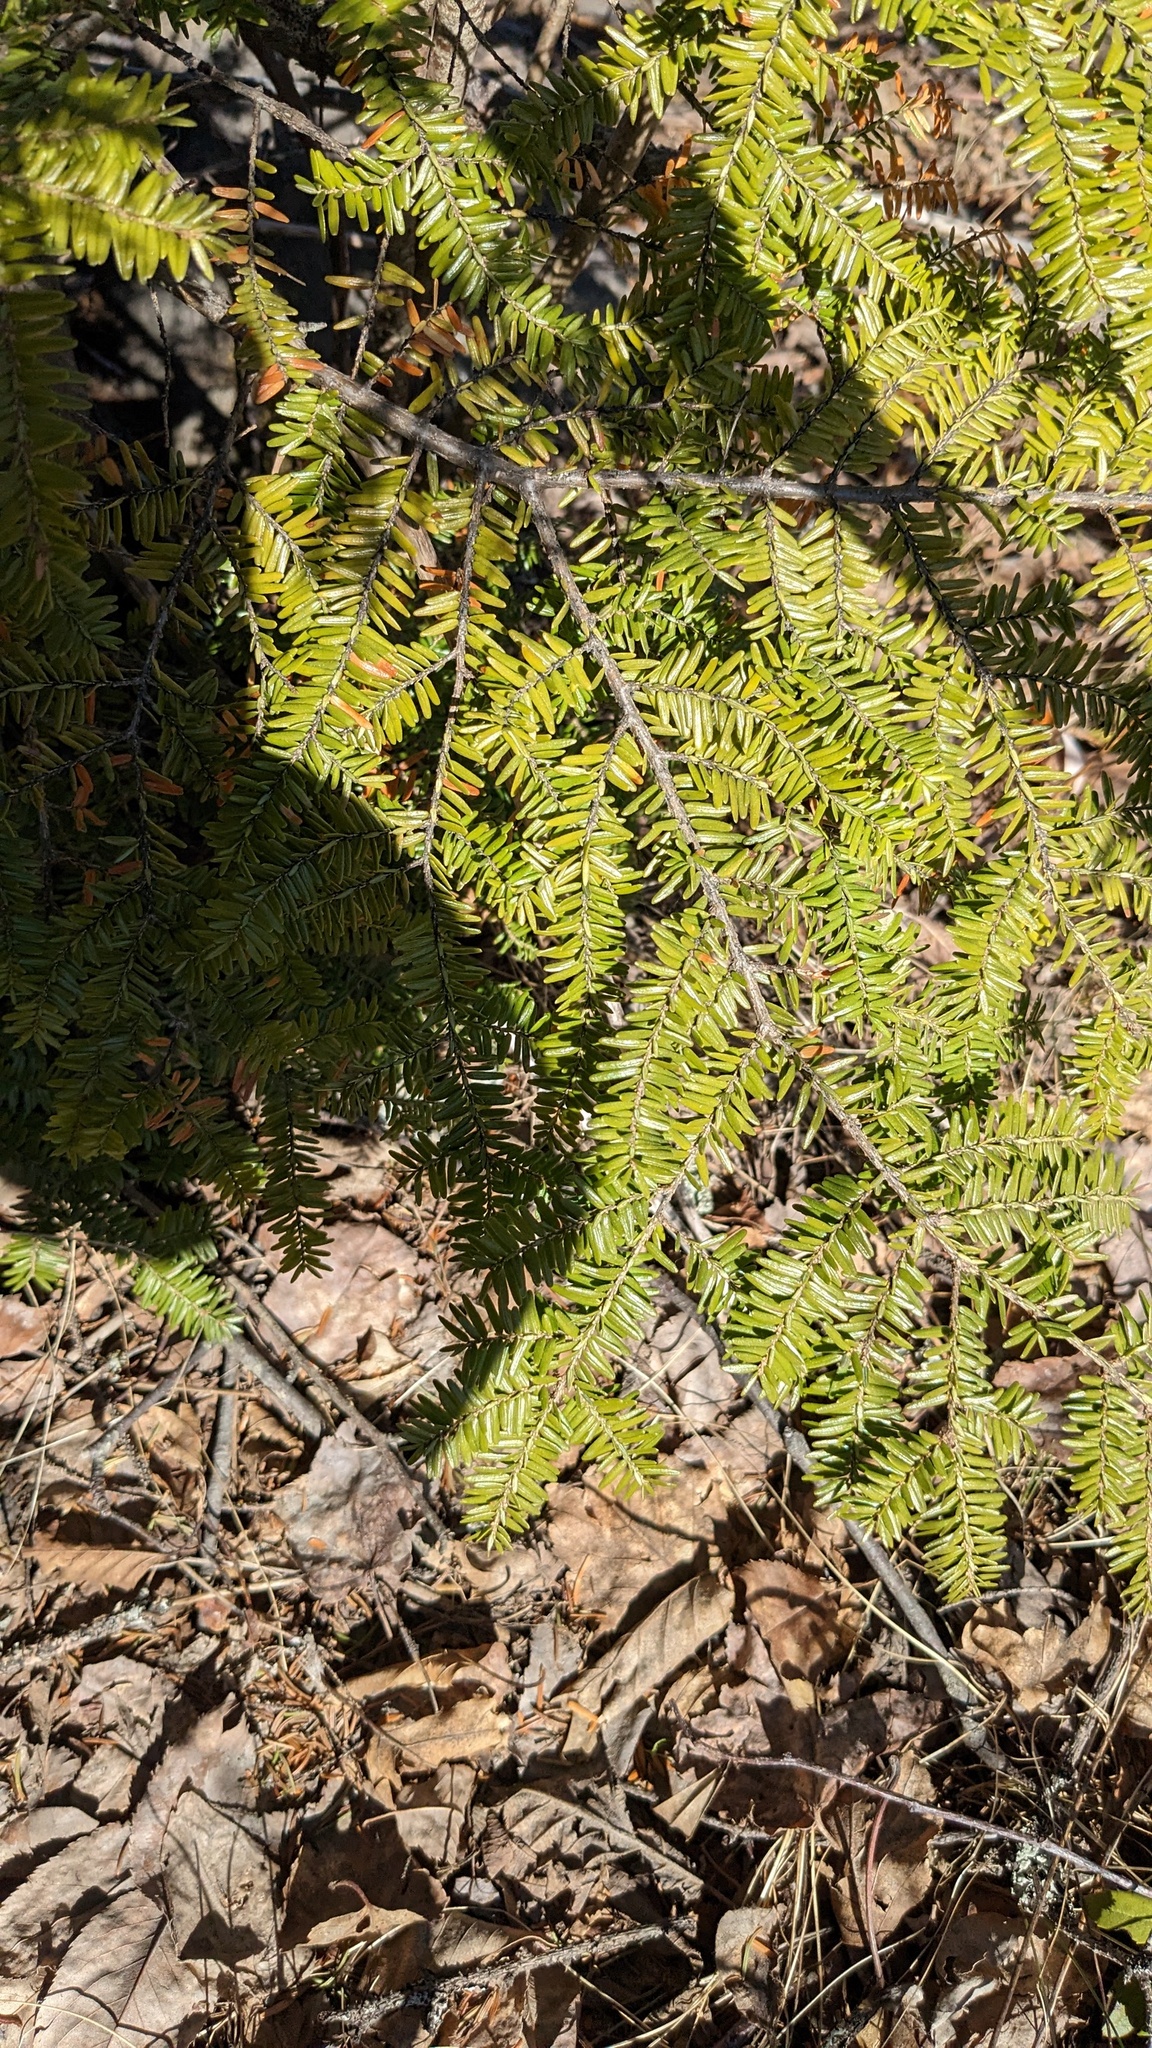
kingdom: Plantae
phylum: Tracheophyta
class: Pinopsida
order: Pinales
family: Pinaceae
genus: Tsuga
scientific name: Tsuga canadensis
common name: Eastern hemlock
